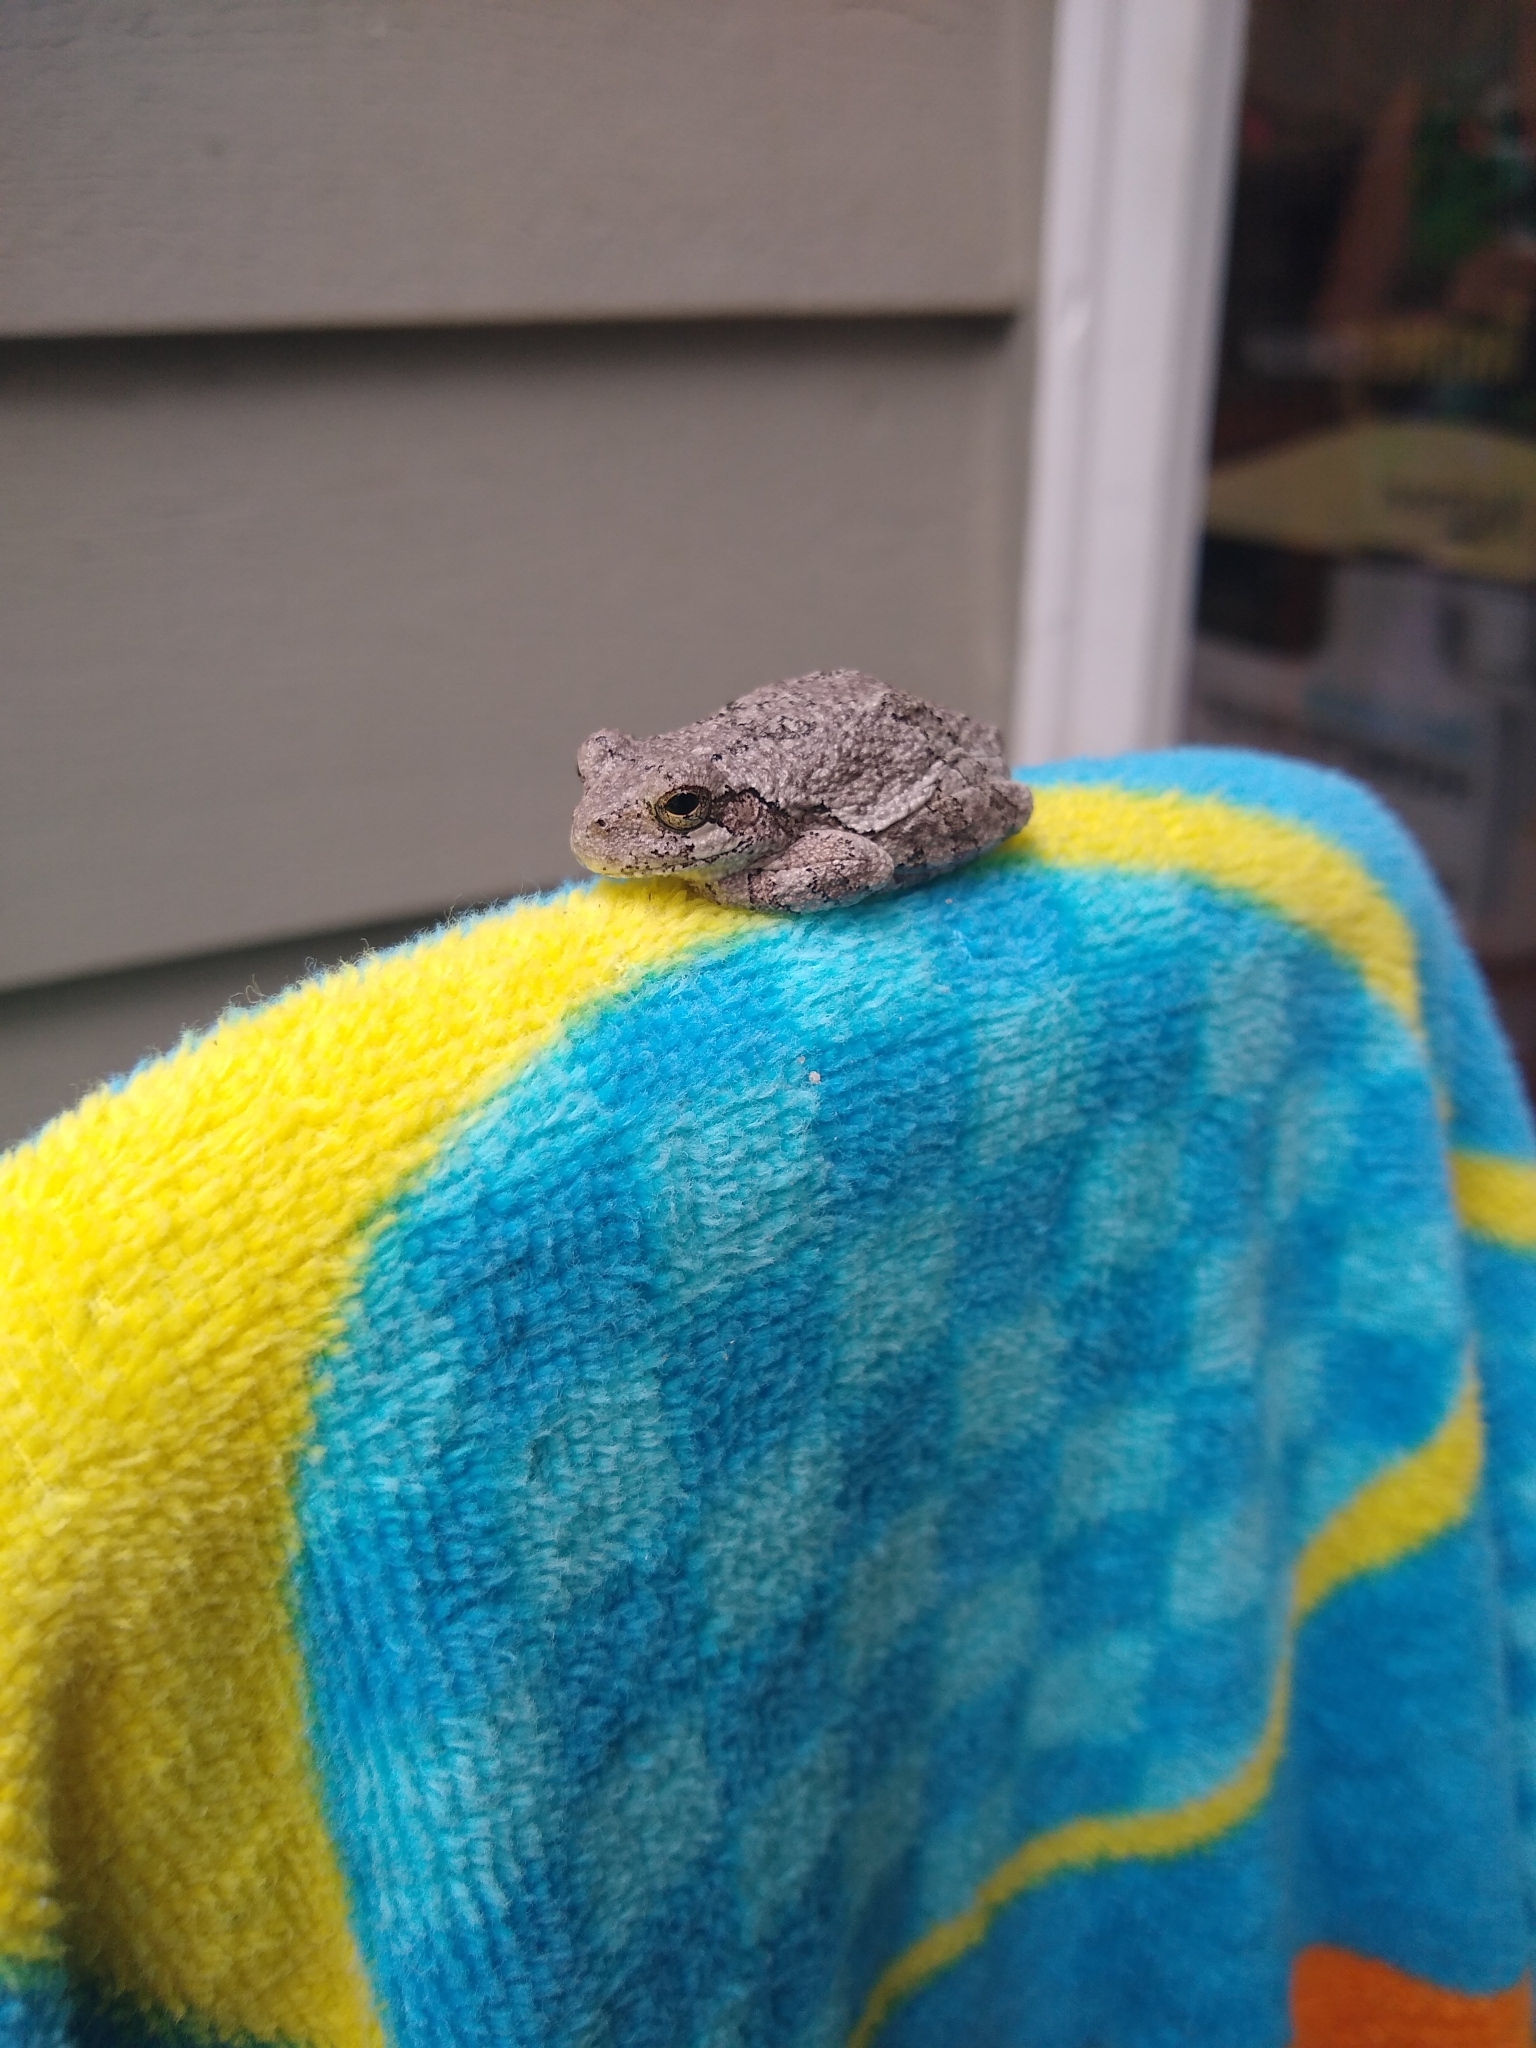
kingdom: Animalia
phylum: Chordata
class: Amphibia
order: Anura
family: Hylidae
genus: Hyla
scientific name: Hyla
